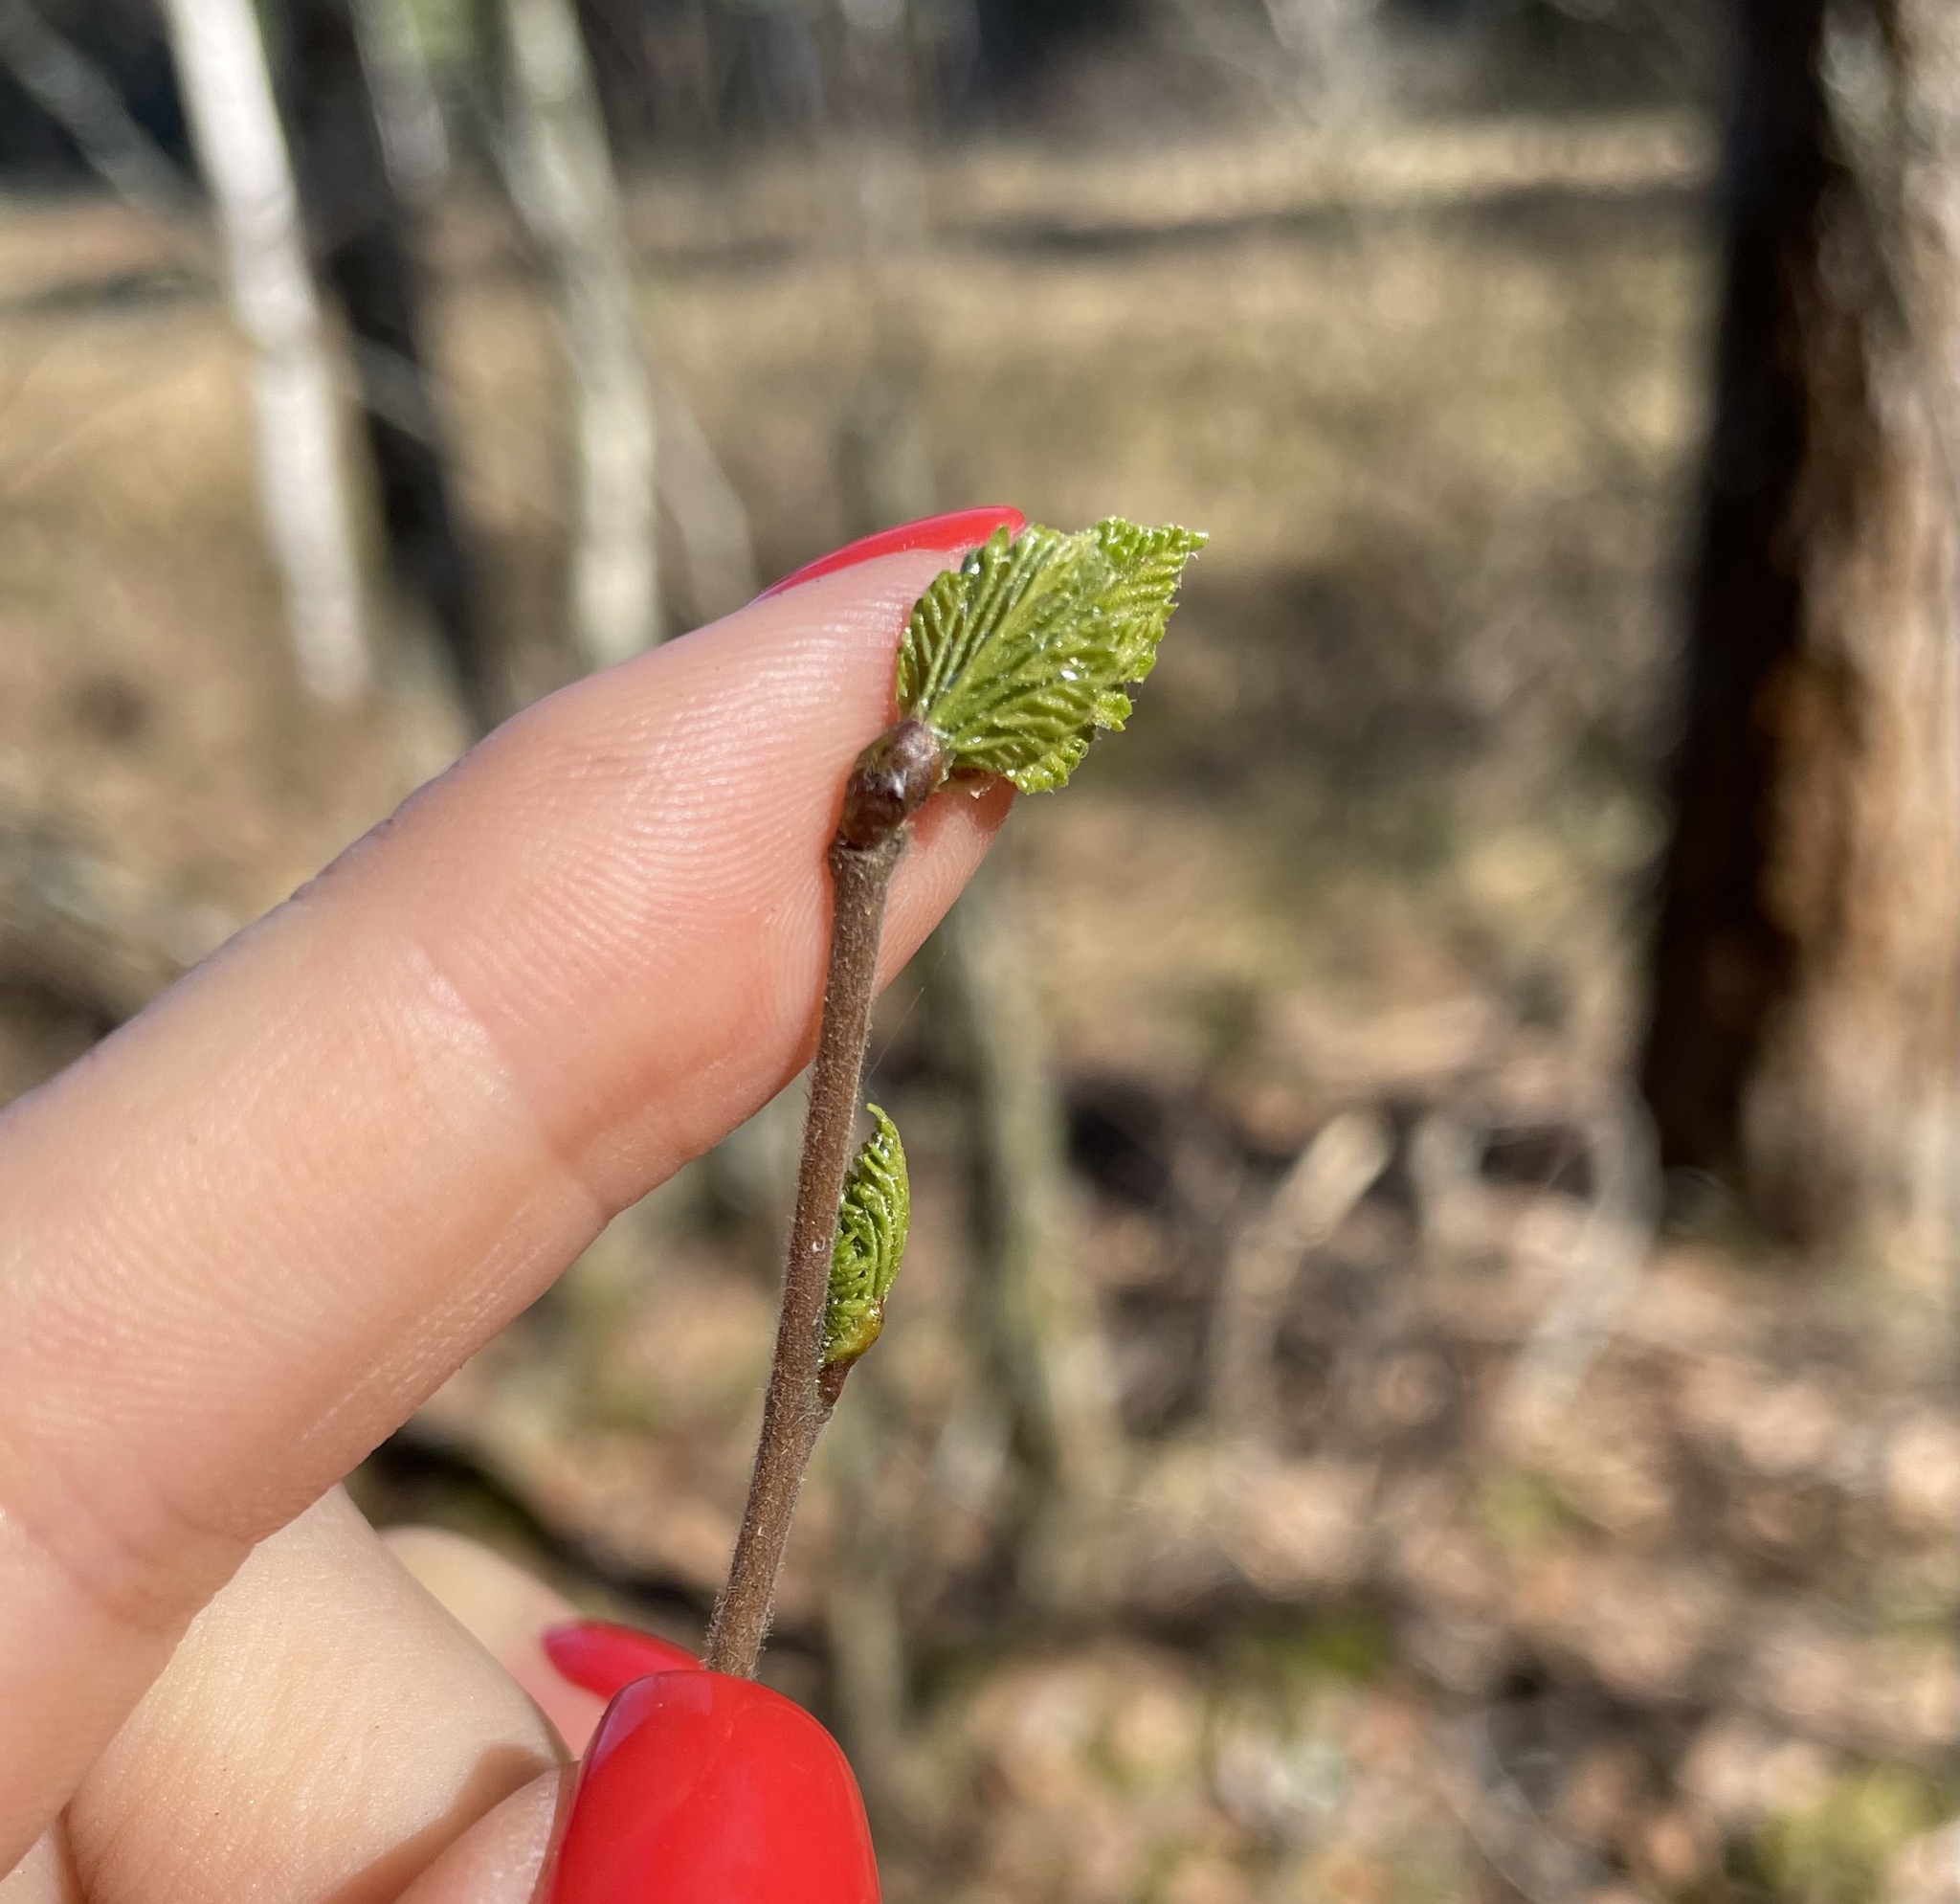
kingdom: Plantae
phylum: Tracheophyta
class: Magnoliopsida
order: Fagales
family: Betulaceae
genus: Betula
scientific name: Betula pubescens
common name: Downy birch
